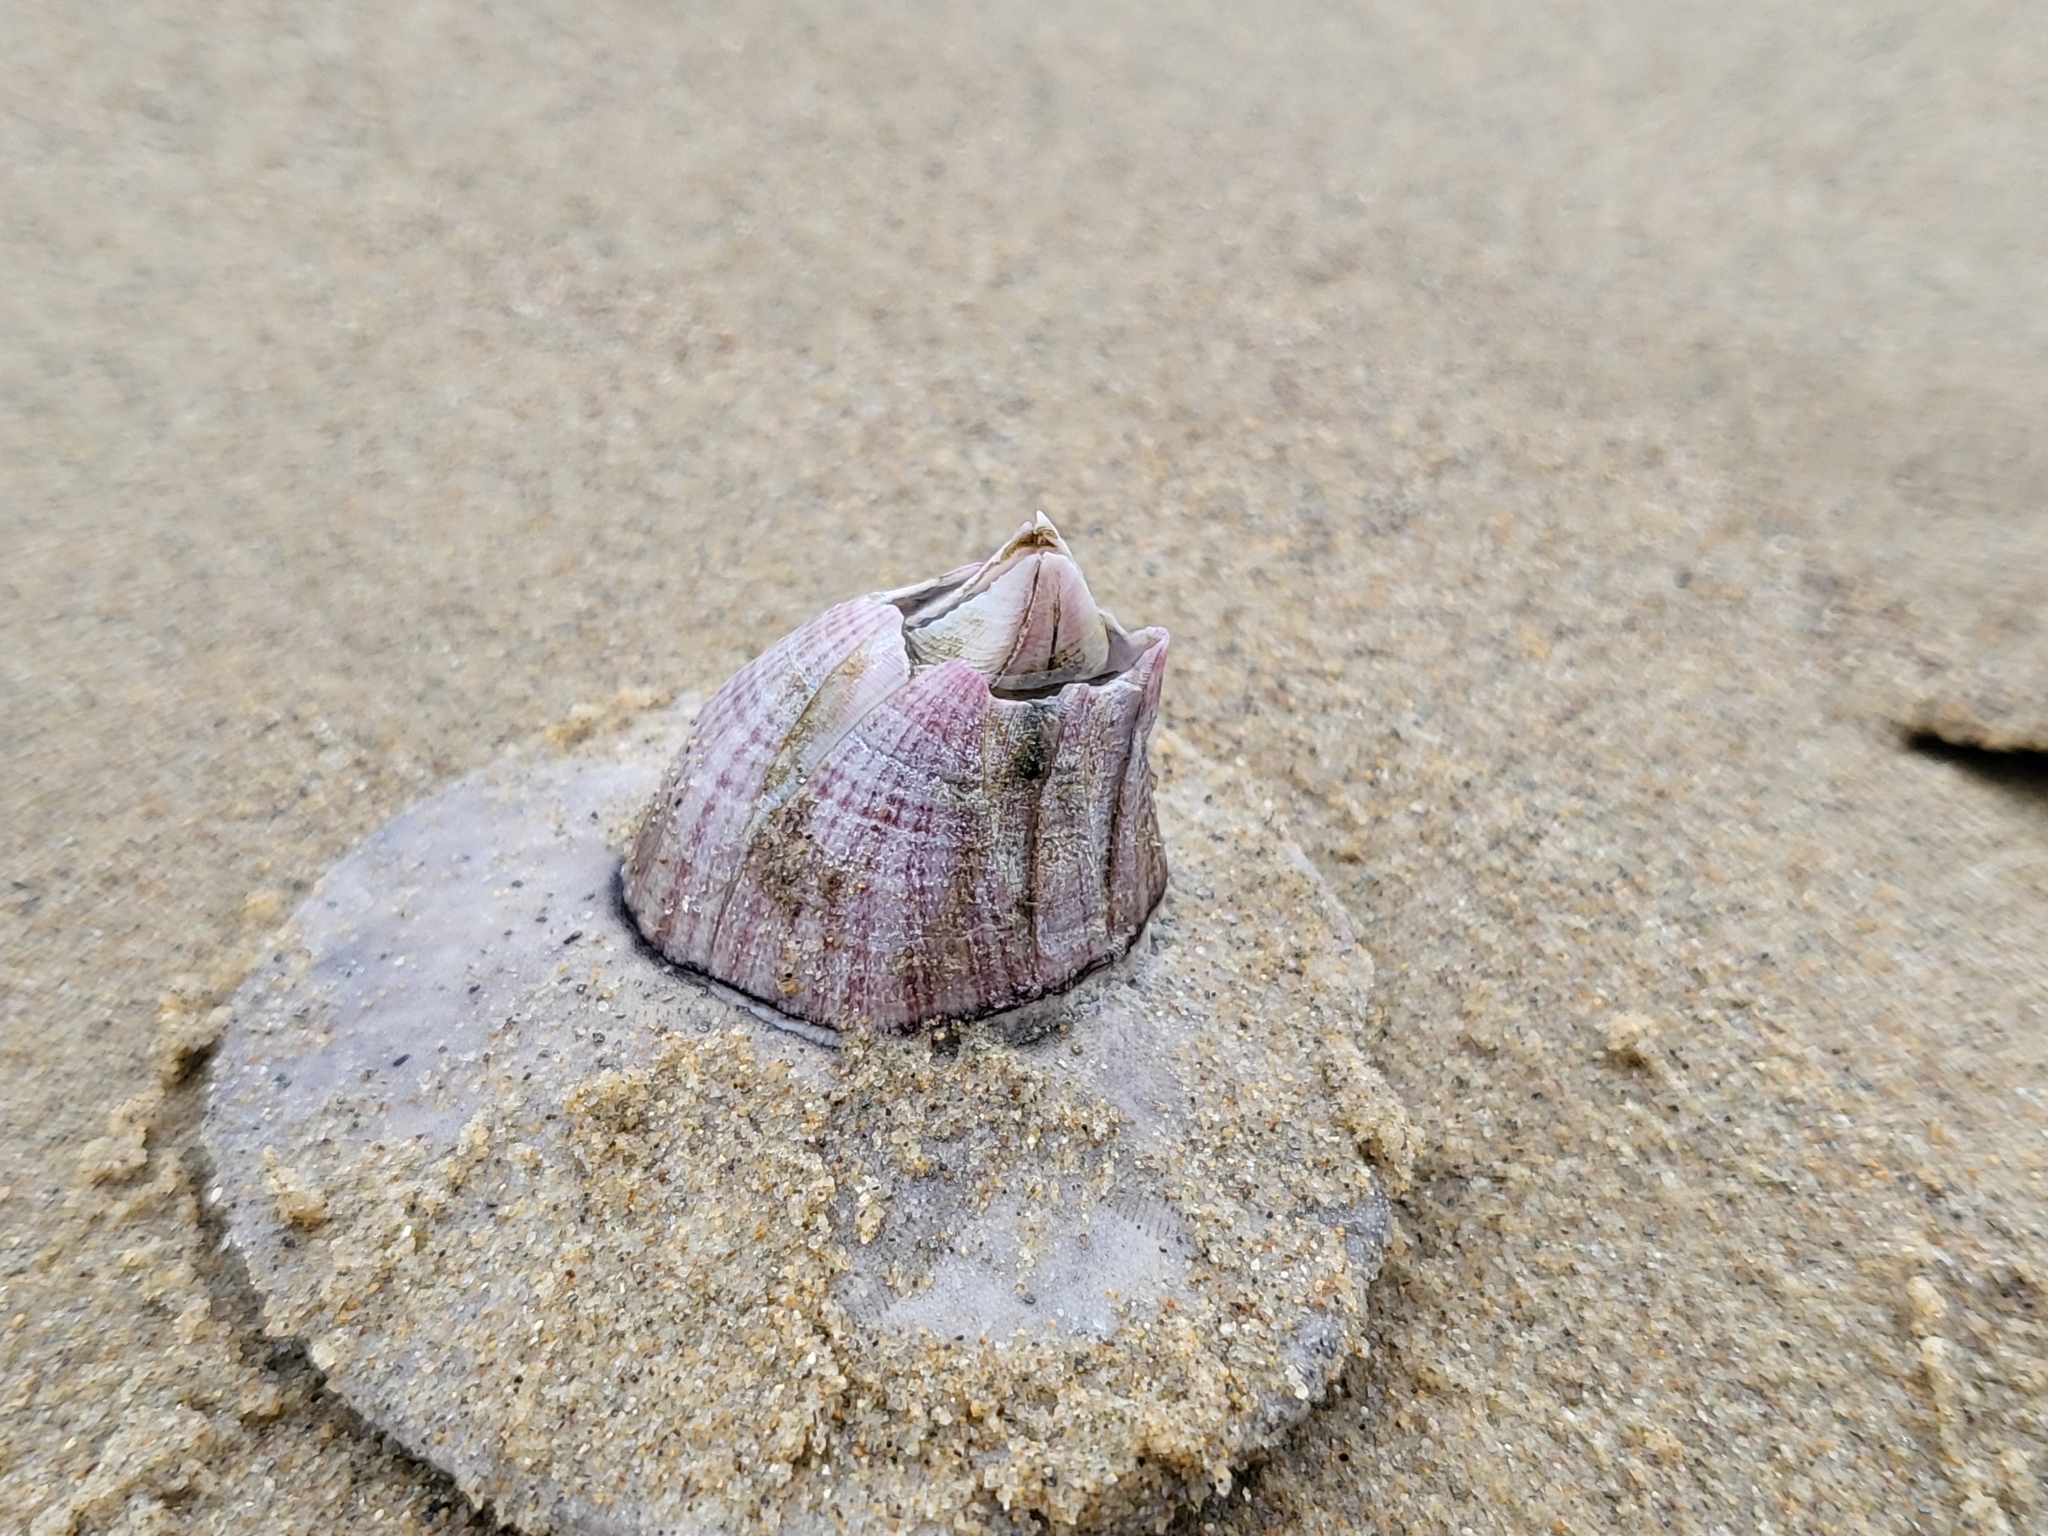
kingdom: Animalia
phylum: Arthropoda
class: Maxillopoda
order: Sessilia
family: Balanidae
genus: Paraconcavus
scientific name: Paraconcavus pacificus
